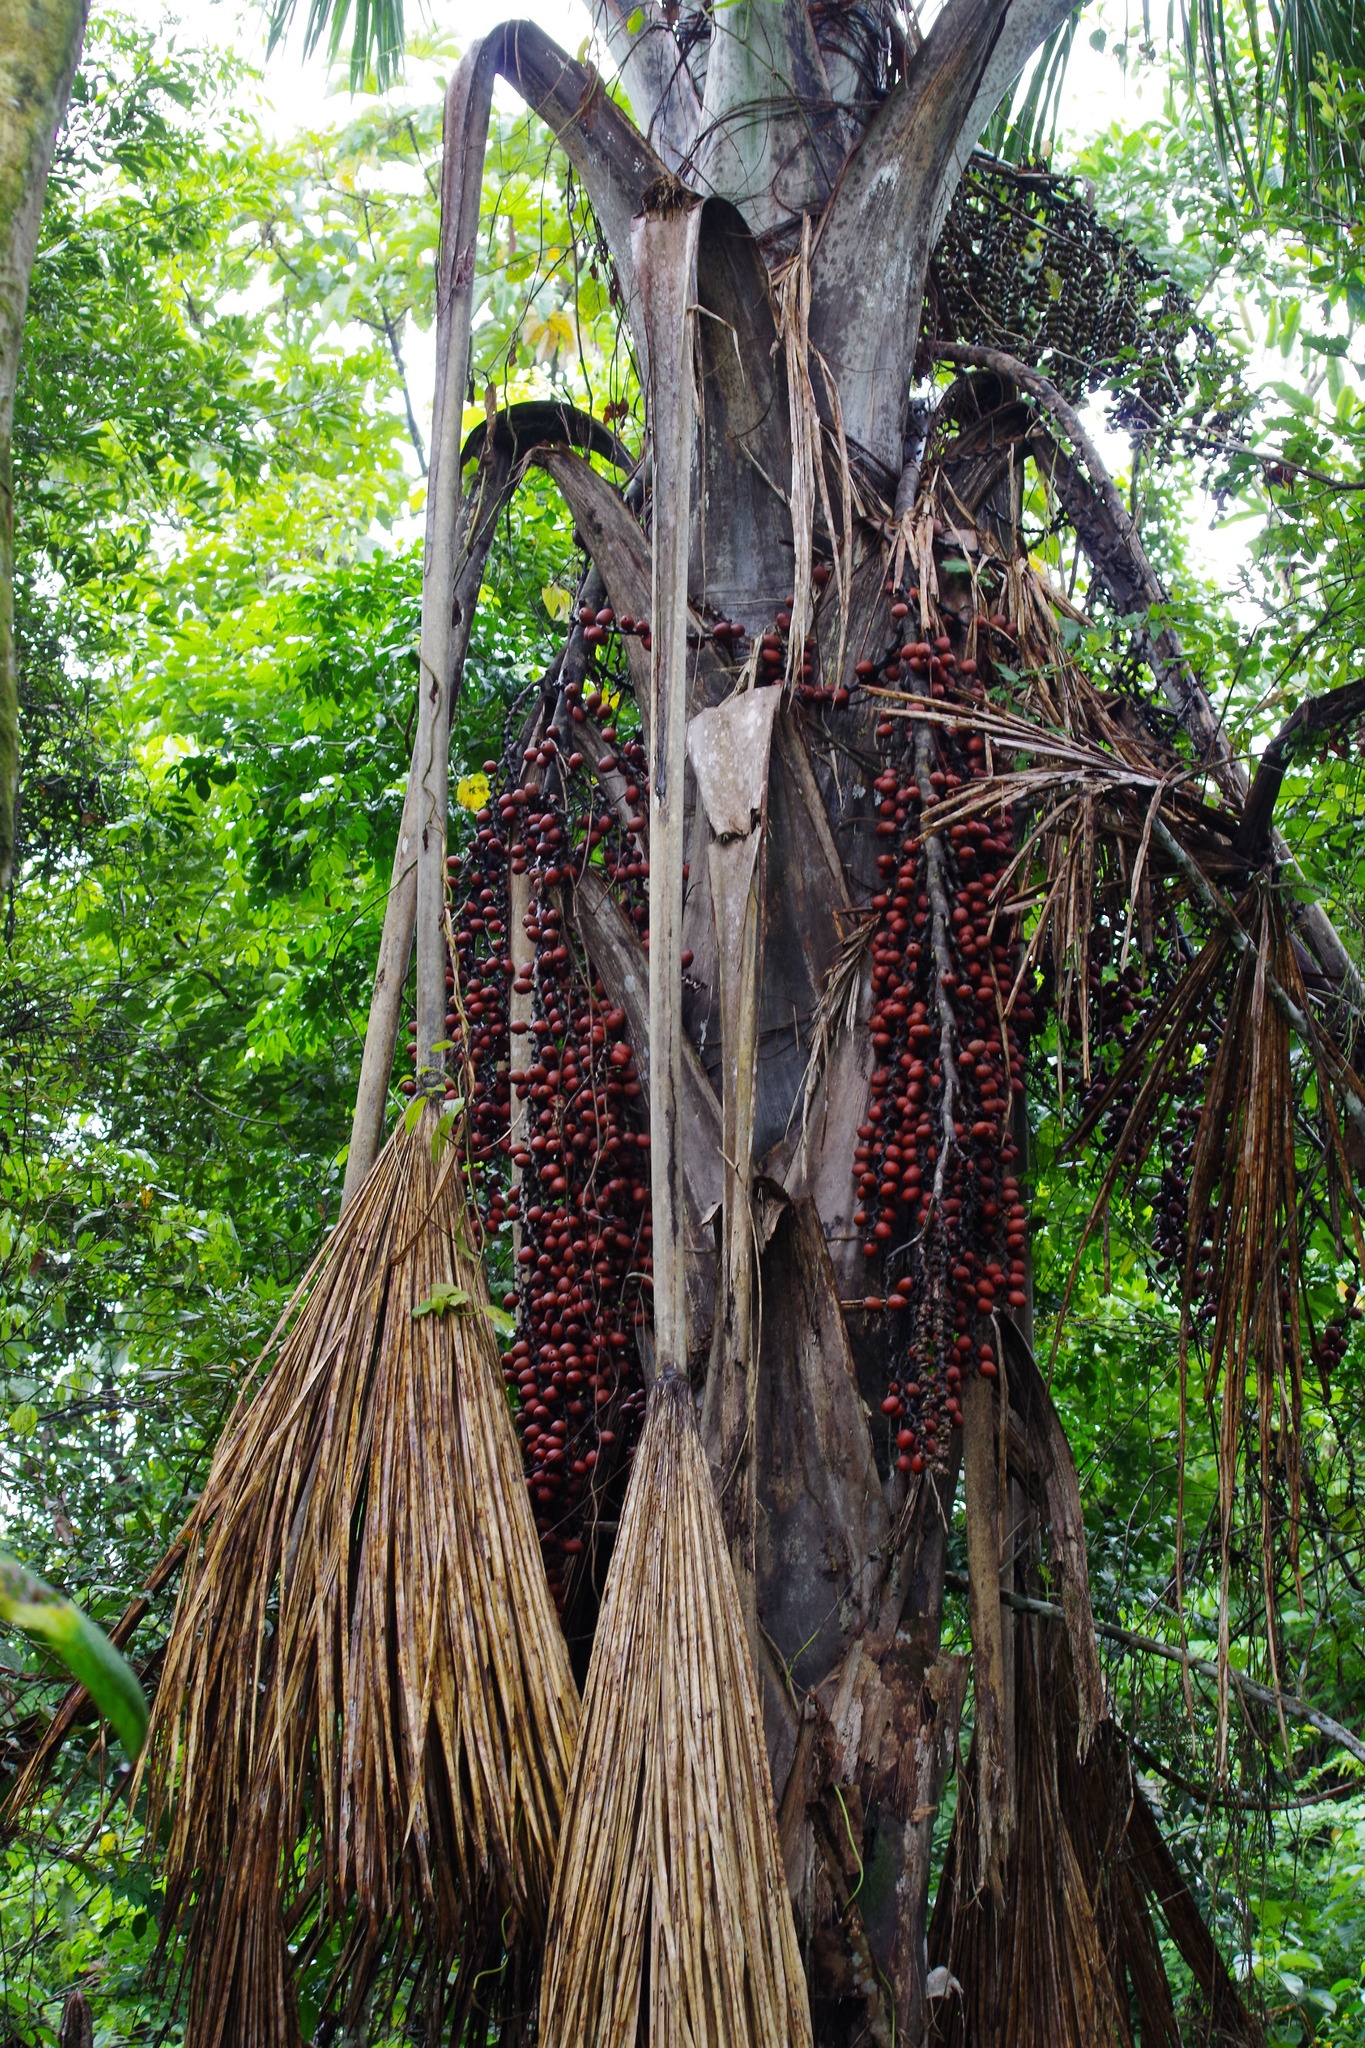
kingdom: Plantae
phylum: Tracheophyta
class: Liliopsida
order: Arecales
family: Arecaceae
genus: Mauritia
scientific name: Mauritia flexuosa
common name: Tree-of-life
